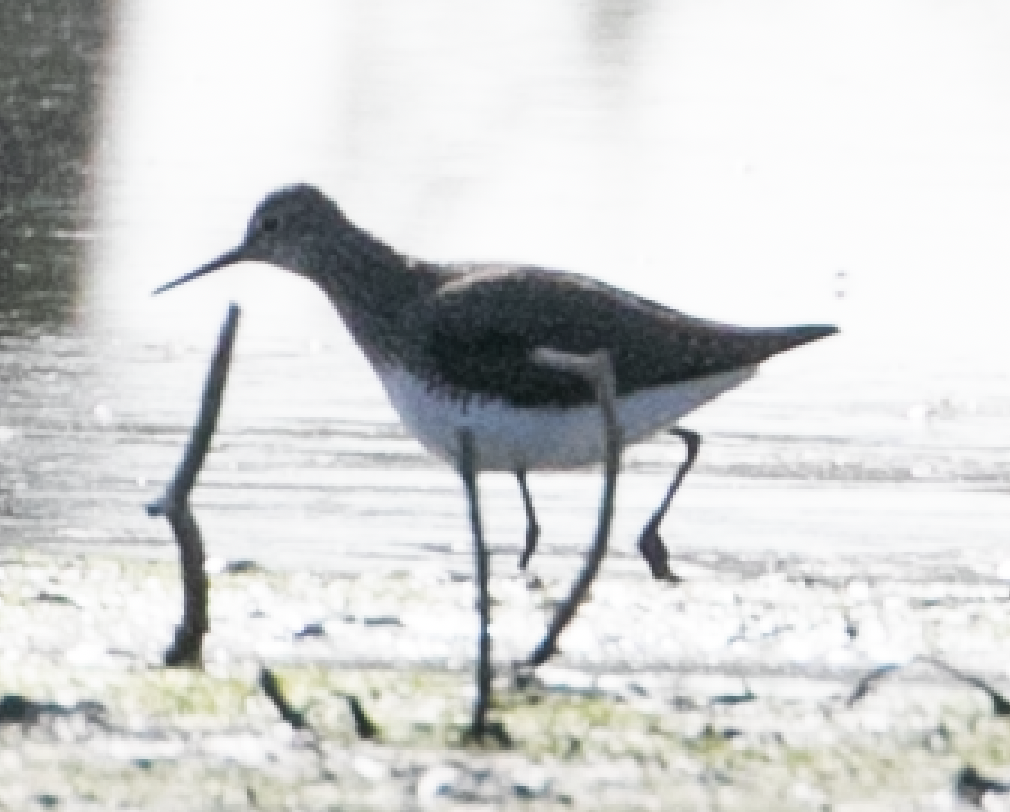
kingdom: Animalia
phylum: Chordata
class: Aves
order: Charadriiformes
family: Scolopacidae
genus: Tringa
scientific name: Tringa ochropus
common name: Green sandpiper
